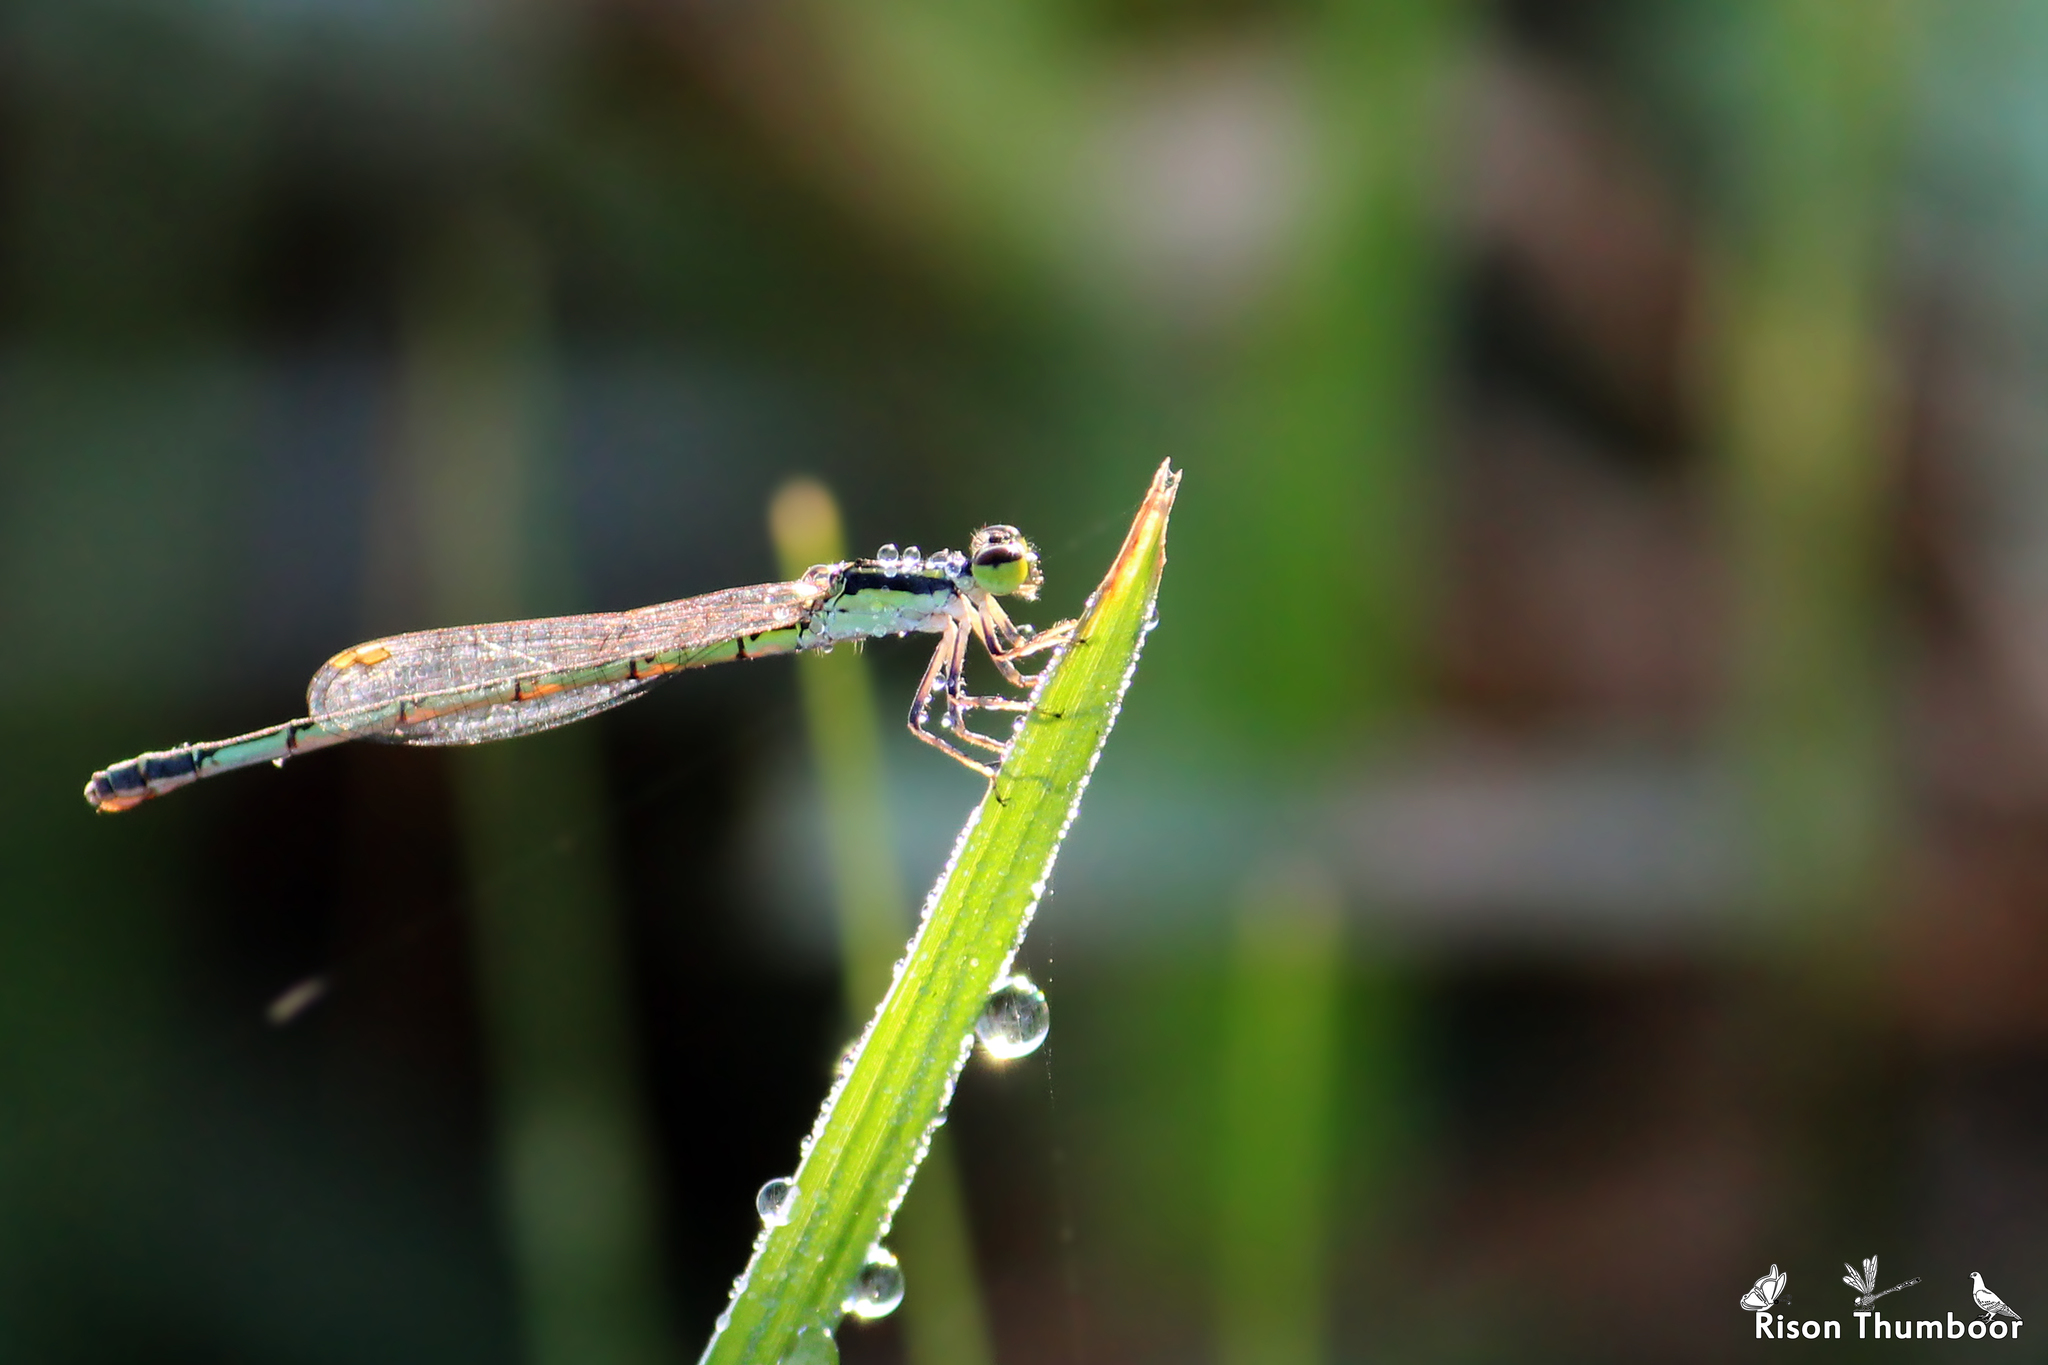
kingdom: Animalia
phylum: Arthropoda
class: Insecta
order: Odonata
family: Coenagrionidae
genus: Agriocnemis
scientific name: Agriocnemis keralensis
